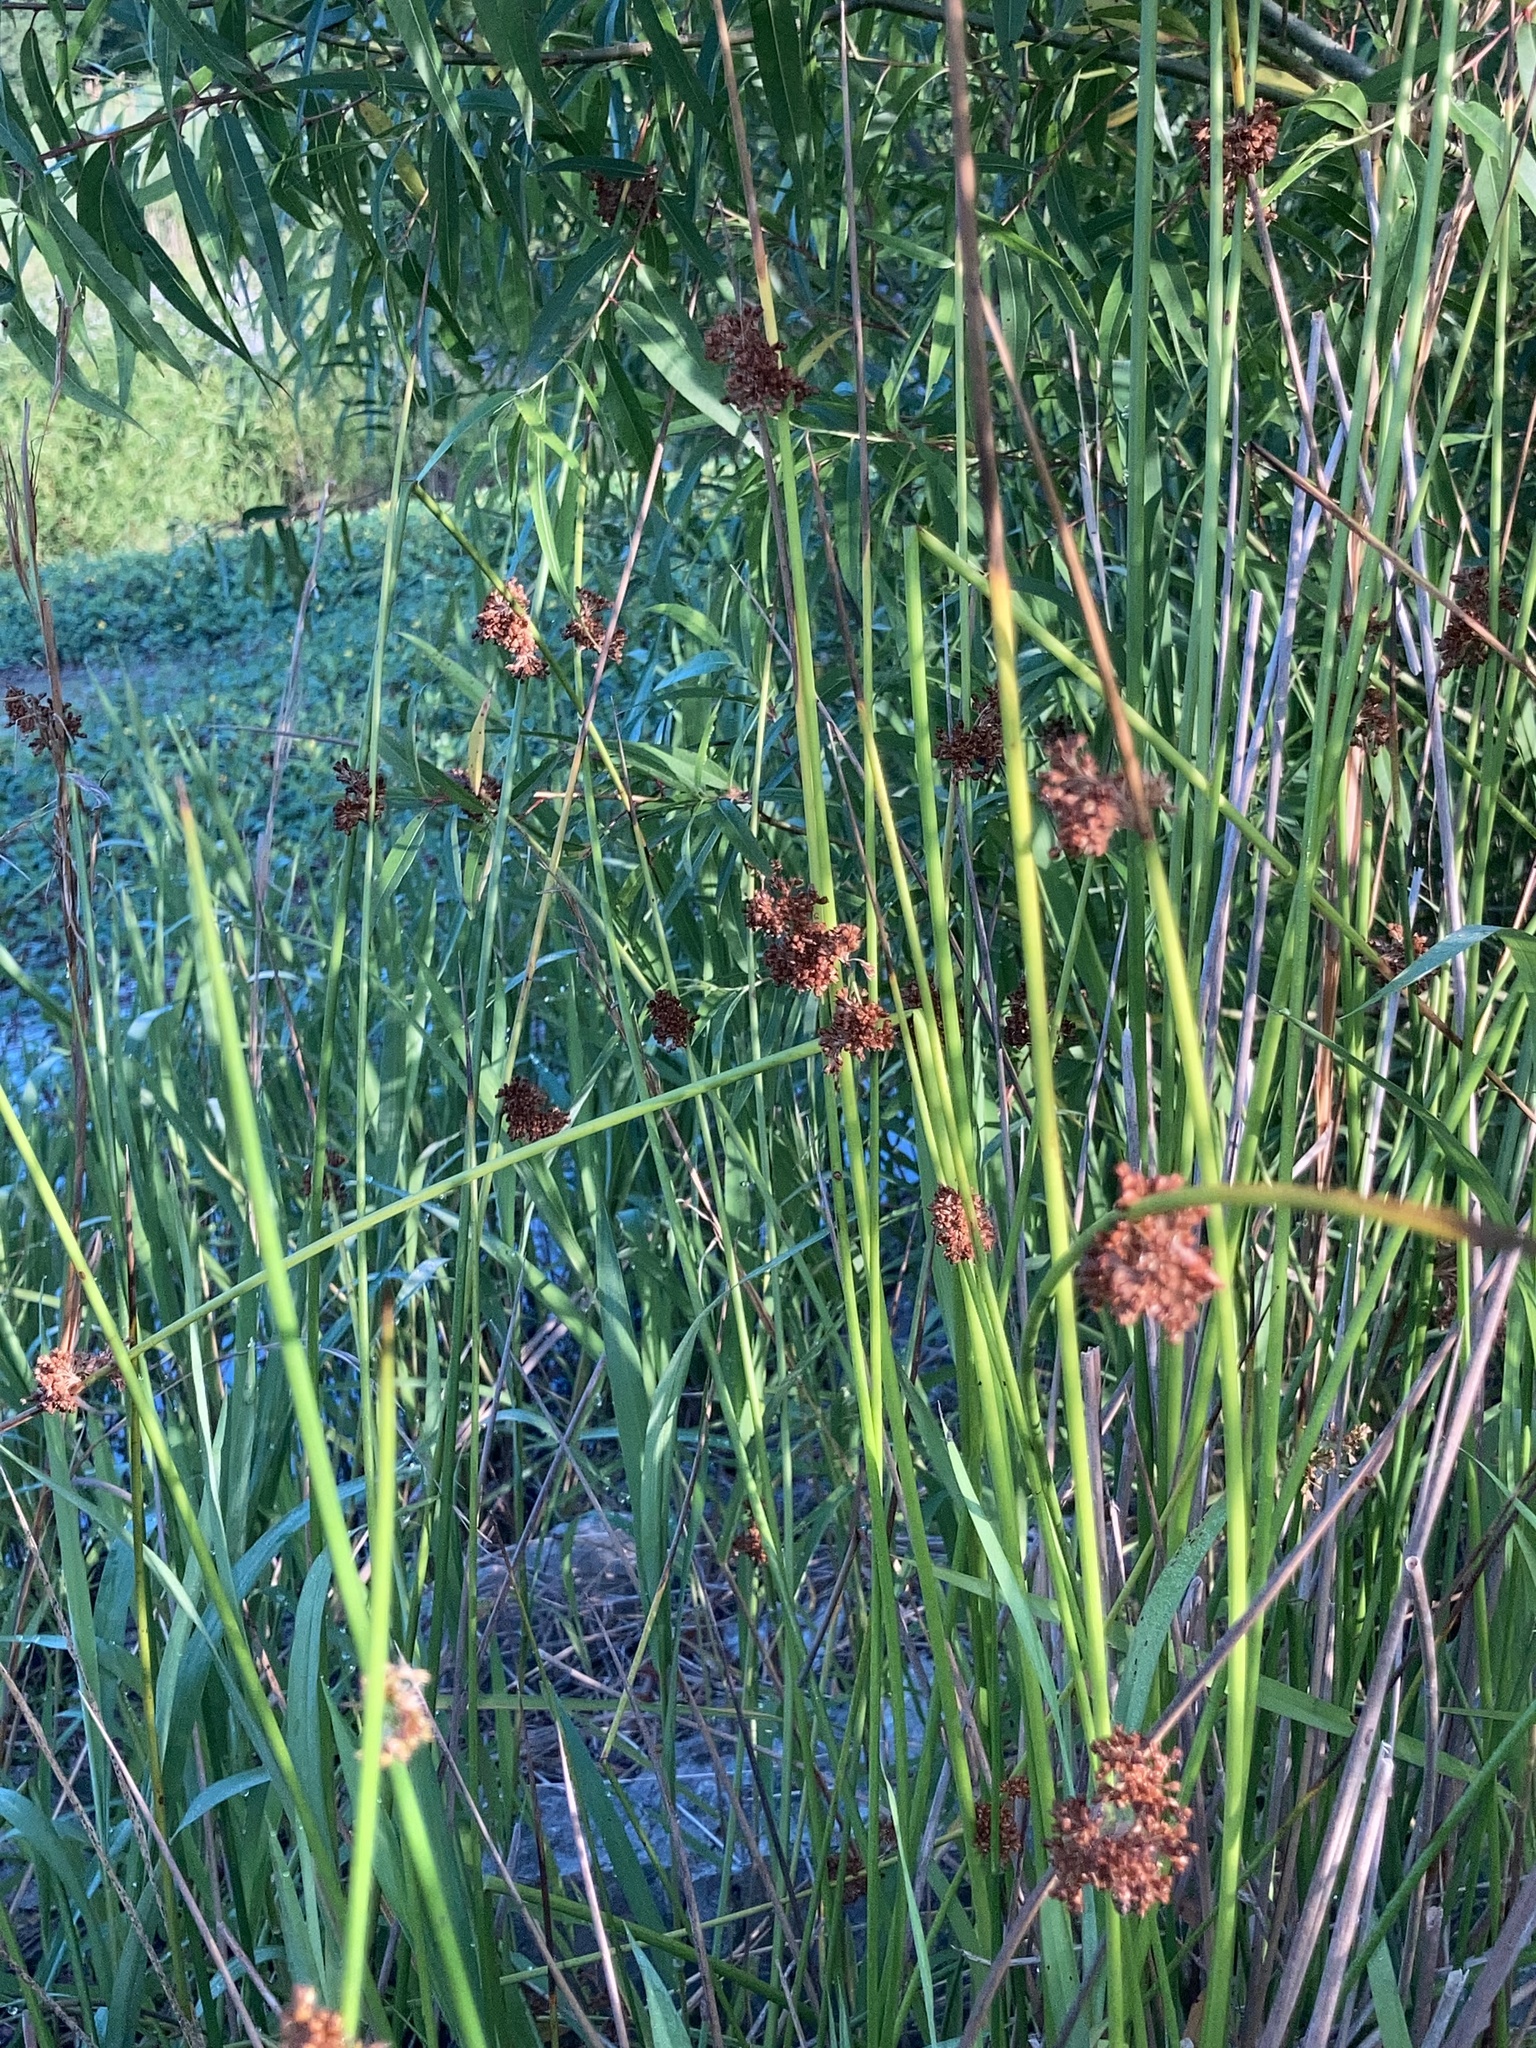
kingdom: Plantae
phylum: Tracheophyta
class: Liliopsida
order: Poales
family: Juncaceae
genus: Juncus
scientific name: Juncus effusus
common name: Soft rush
